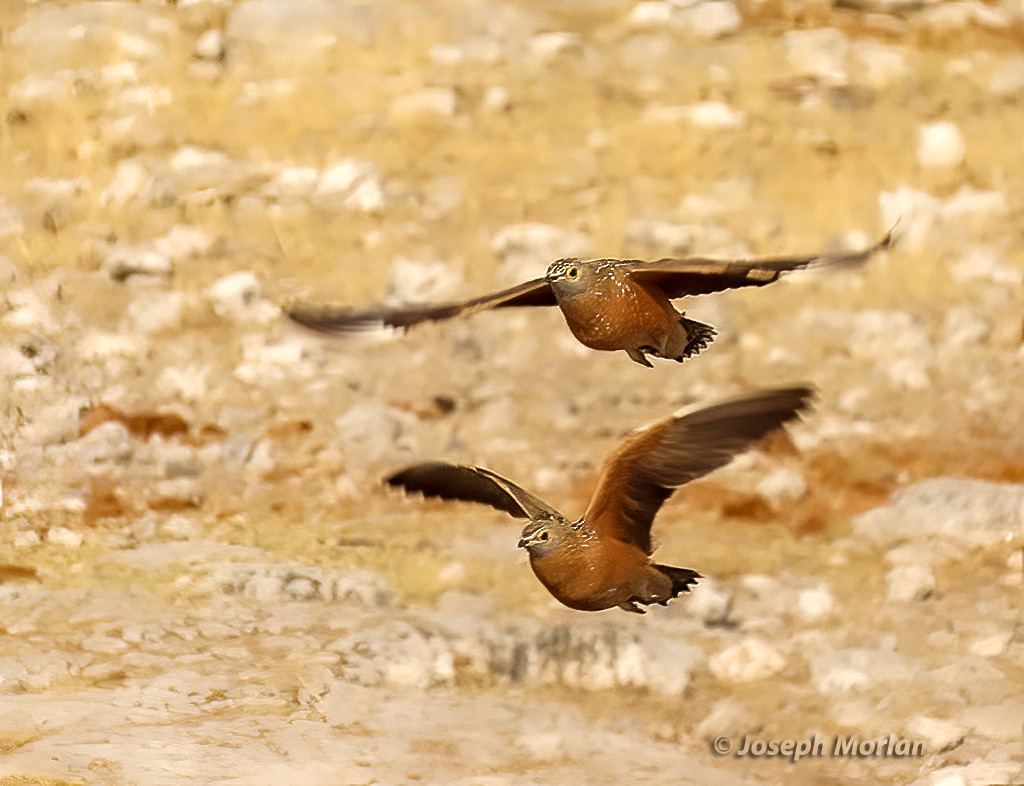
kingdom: Animalia
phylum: Chordata
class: Aves
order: Pteroclidiformes
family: Pteroclididae
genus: Pterocles
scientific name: Pterocles burchelli
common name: Burchell's sandgrouse
